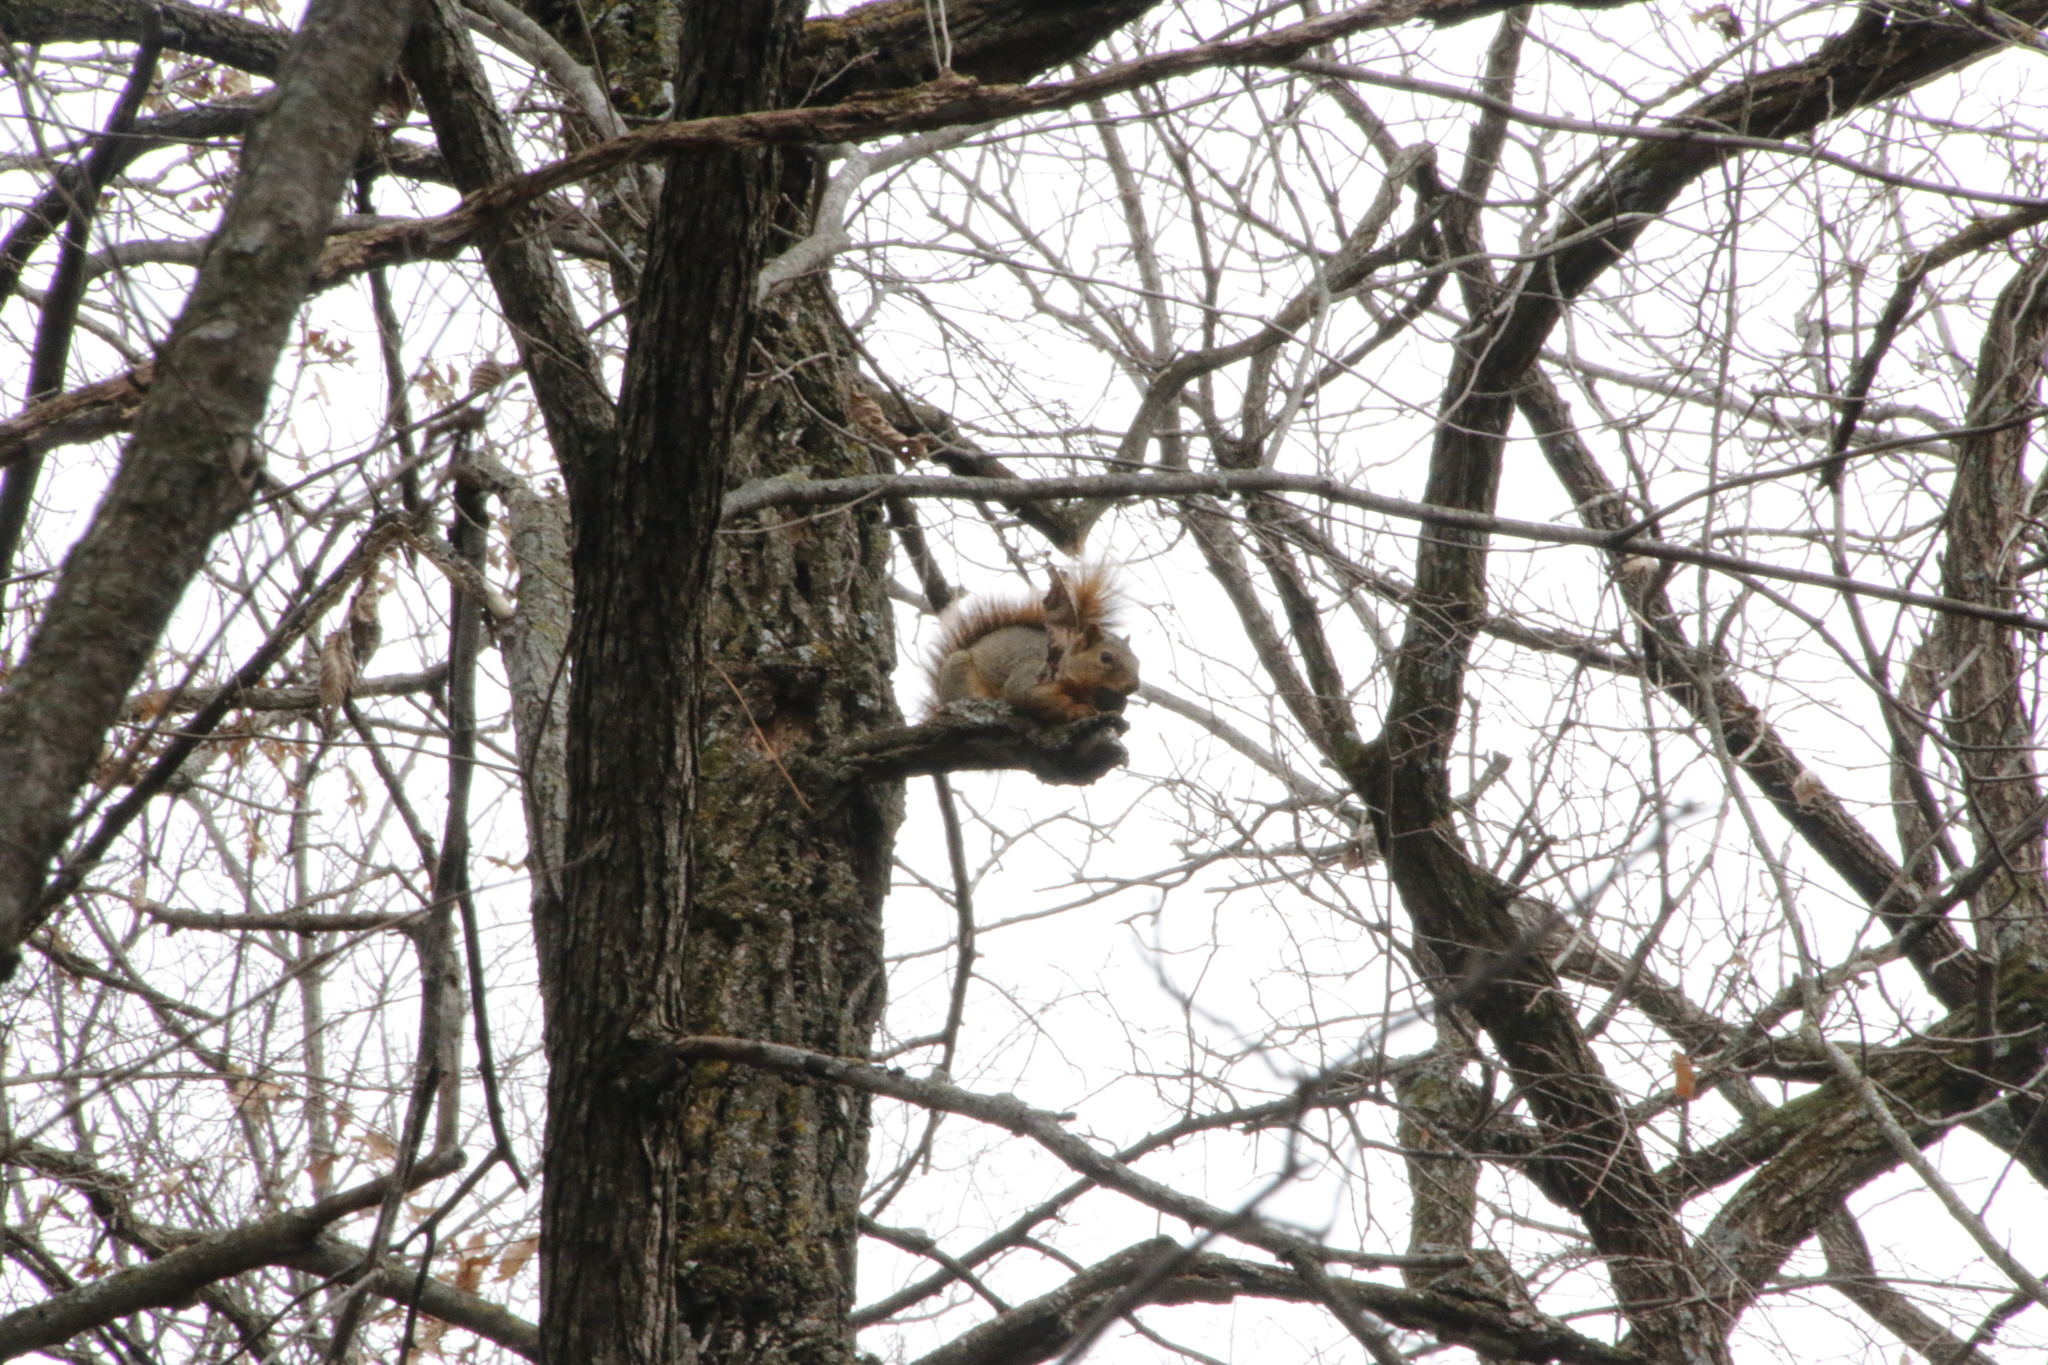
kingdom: Animalia
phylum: Chordata
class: Mammalia
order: Rodentia
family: Sciuridae
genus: Sciurus
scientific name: Sciurus niger
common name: Fox squirrel
